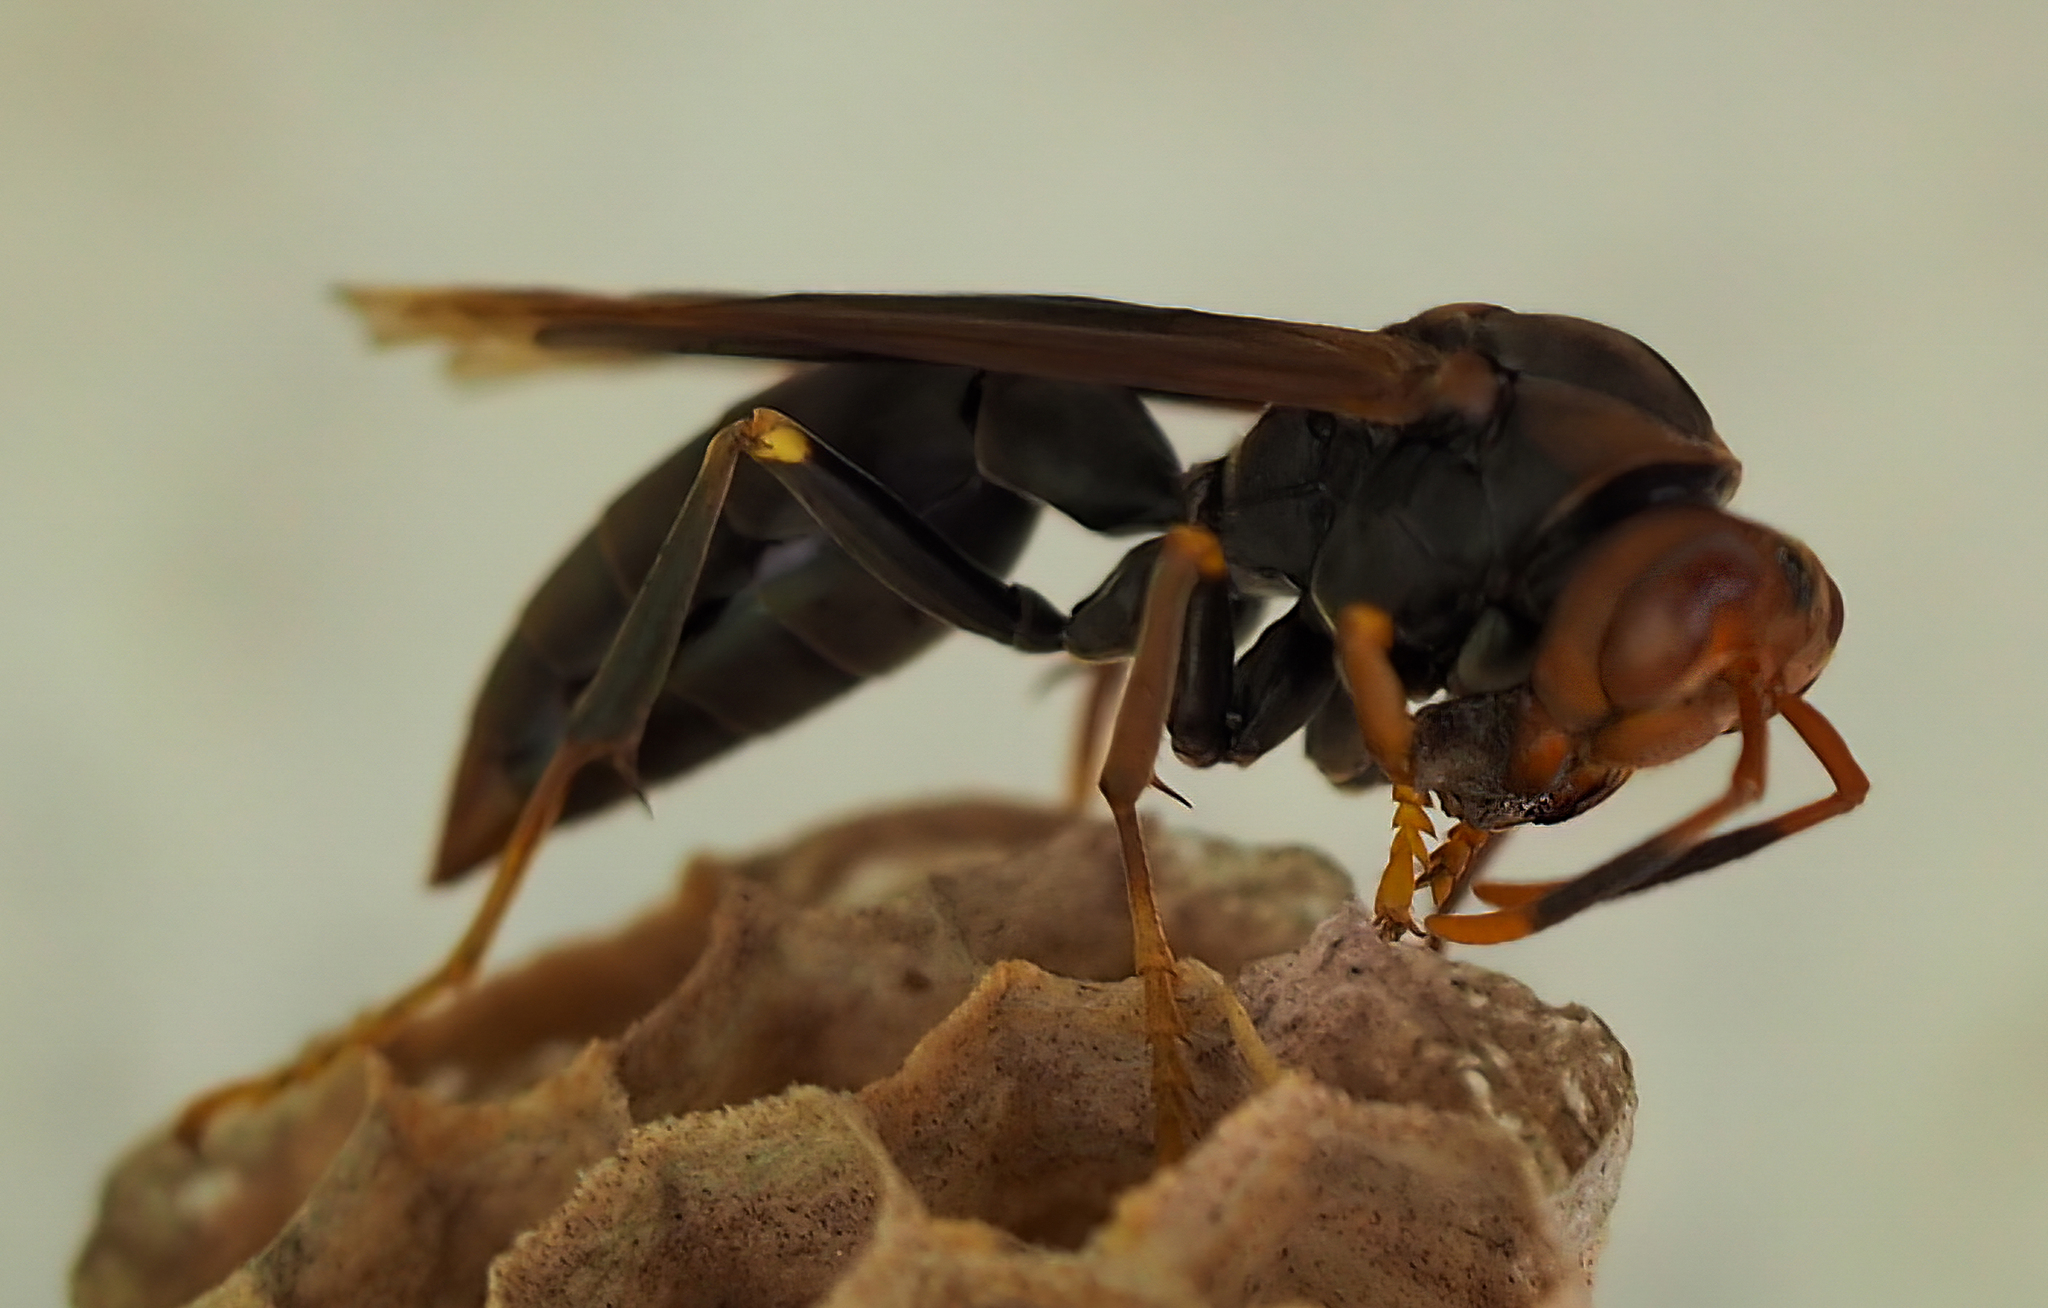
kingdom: Animalia
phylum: Arthropoda
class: Insecta
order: Hymenoptera
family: Pompilidae
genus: Aphanilopterus
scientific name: Aphanilopterus
